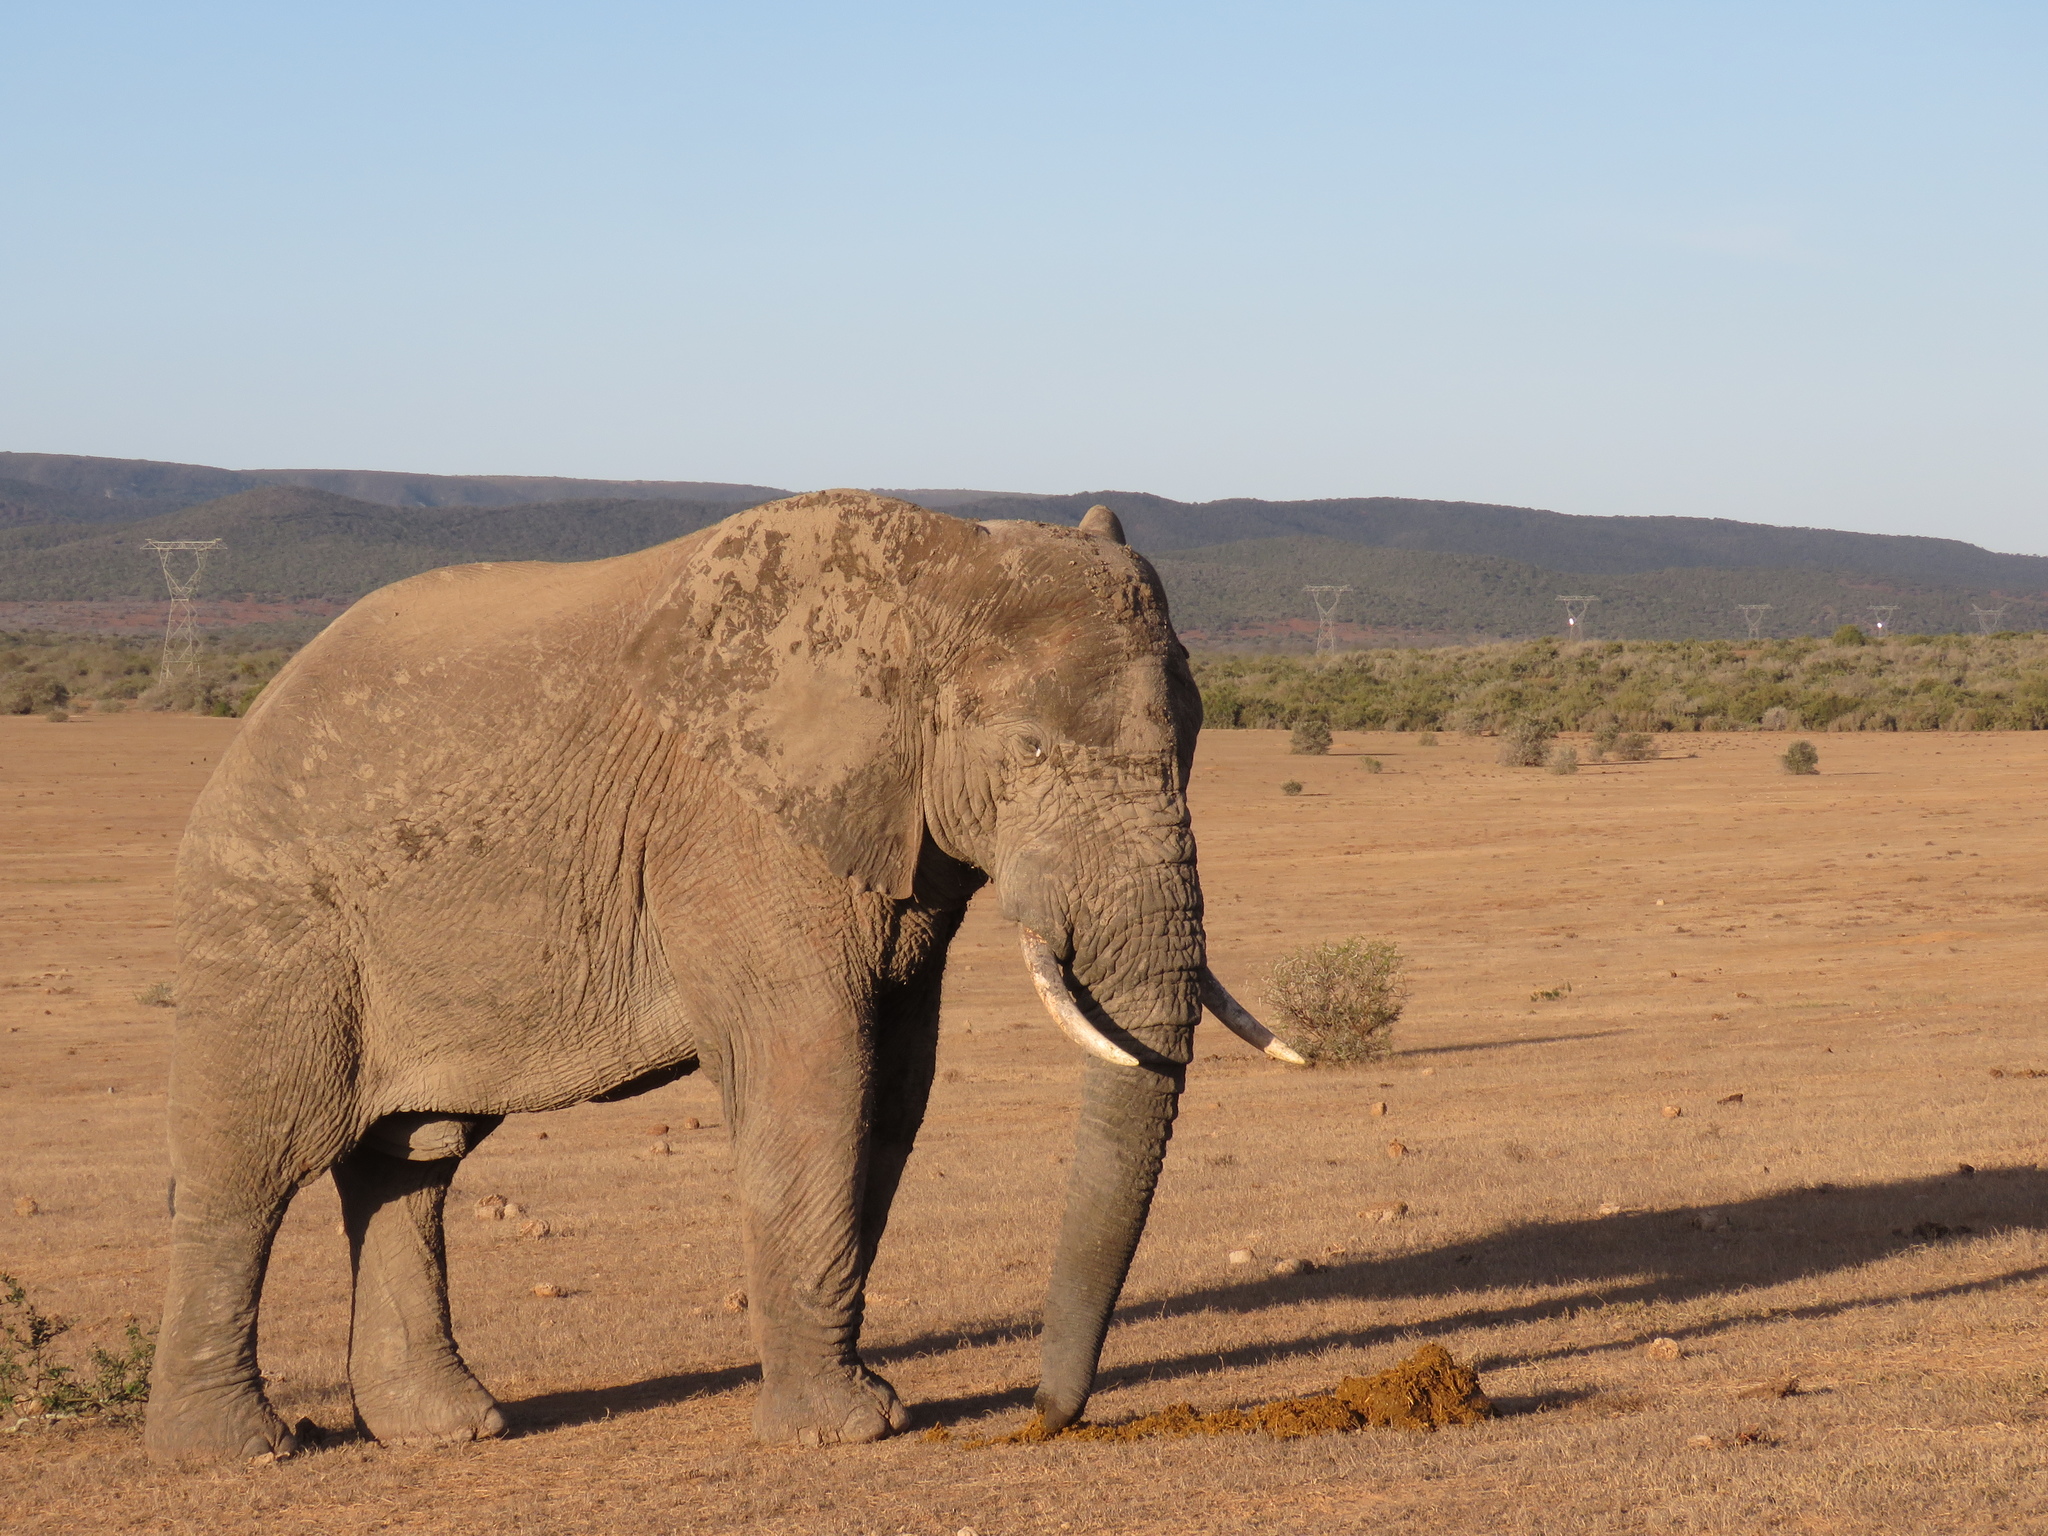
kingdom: Animalia
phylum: Chordata
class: Mammalia
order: Proboscidea
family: Elephantidae
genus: Loxodonta
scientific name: Loxodonta africana
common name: African elephant
